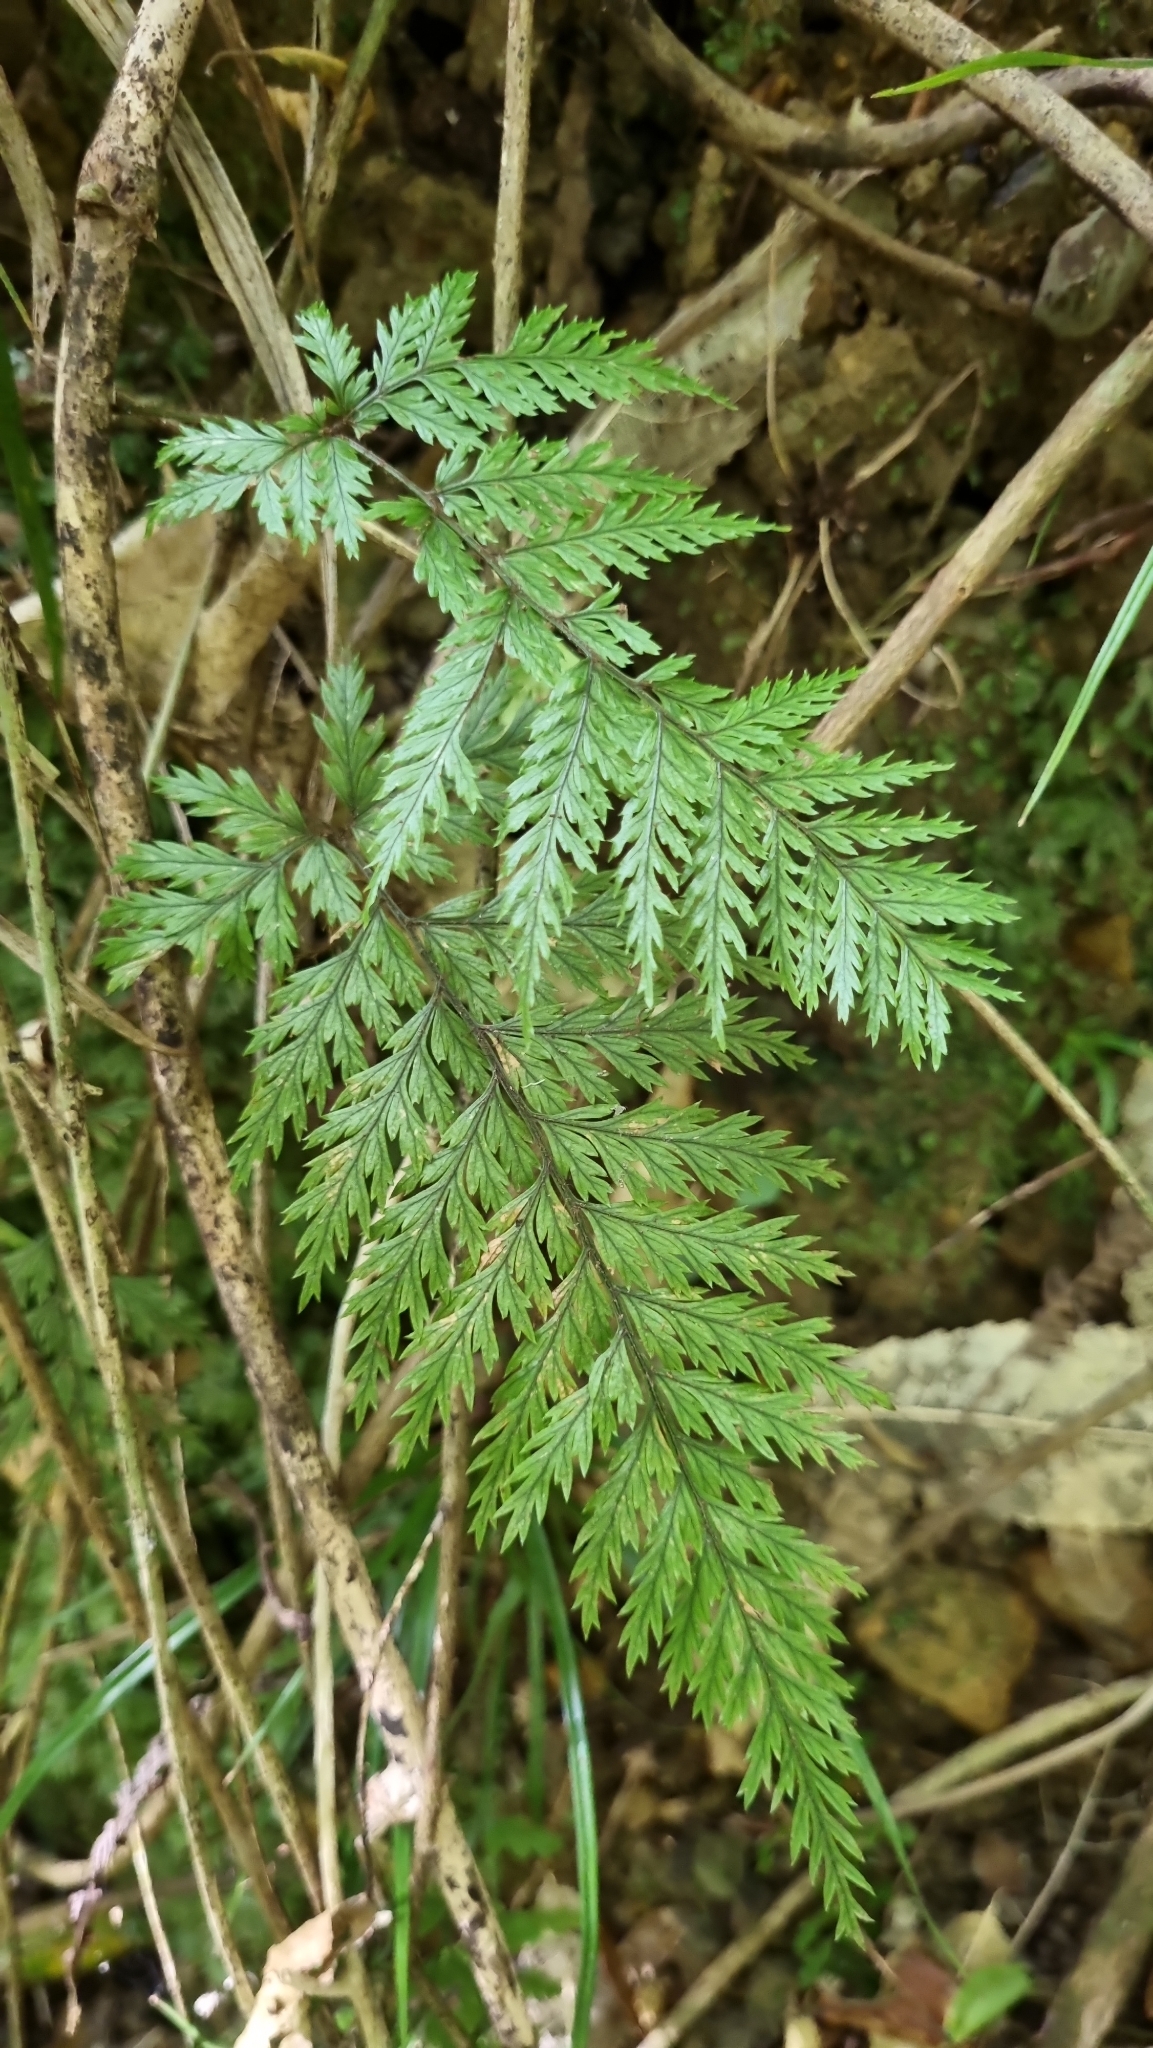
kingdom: Plantae
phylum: Tracheophyta
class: Polypodiopsida
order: Polypodiales
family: Dryopteridaceae
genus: Lastreopsis
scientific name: Lastreopsis hispida
